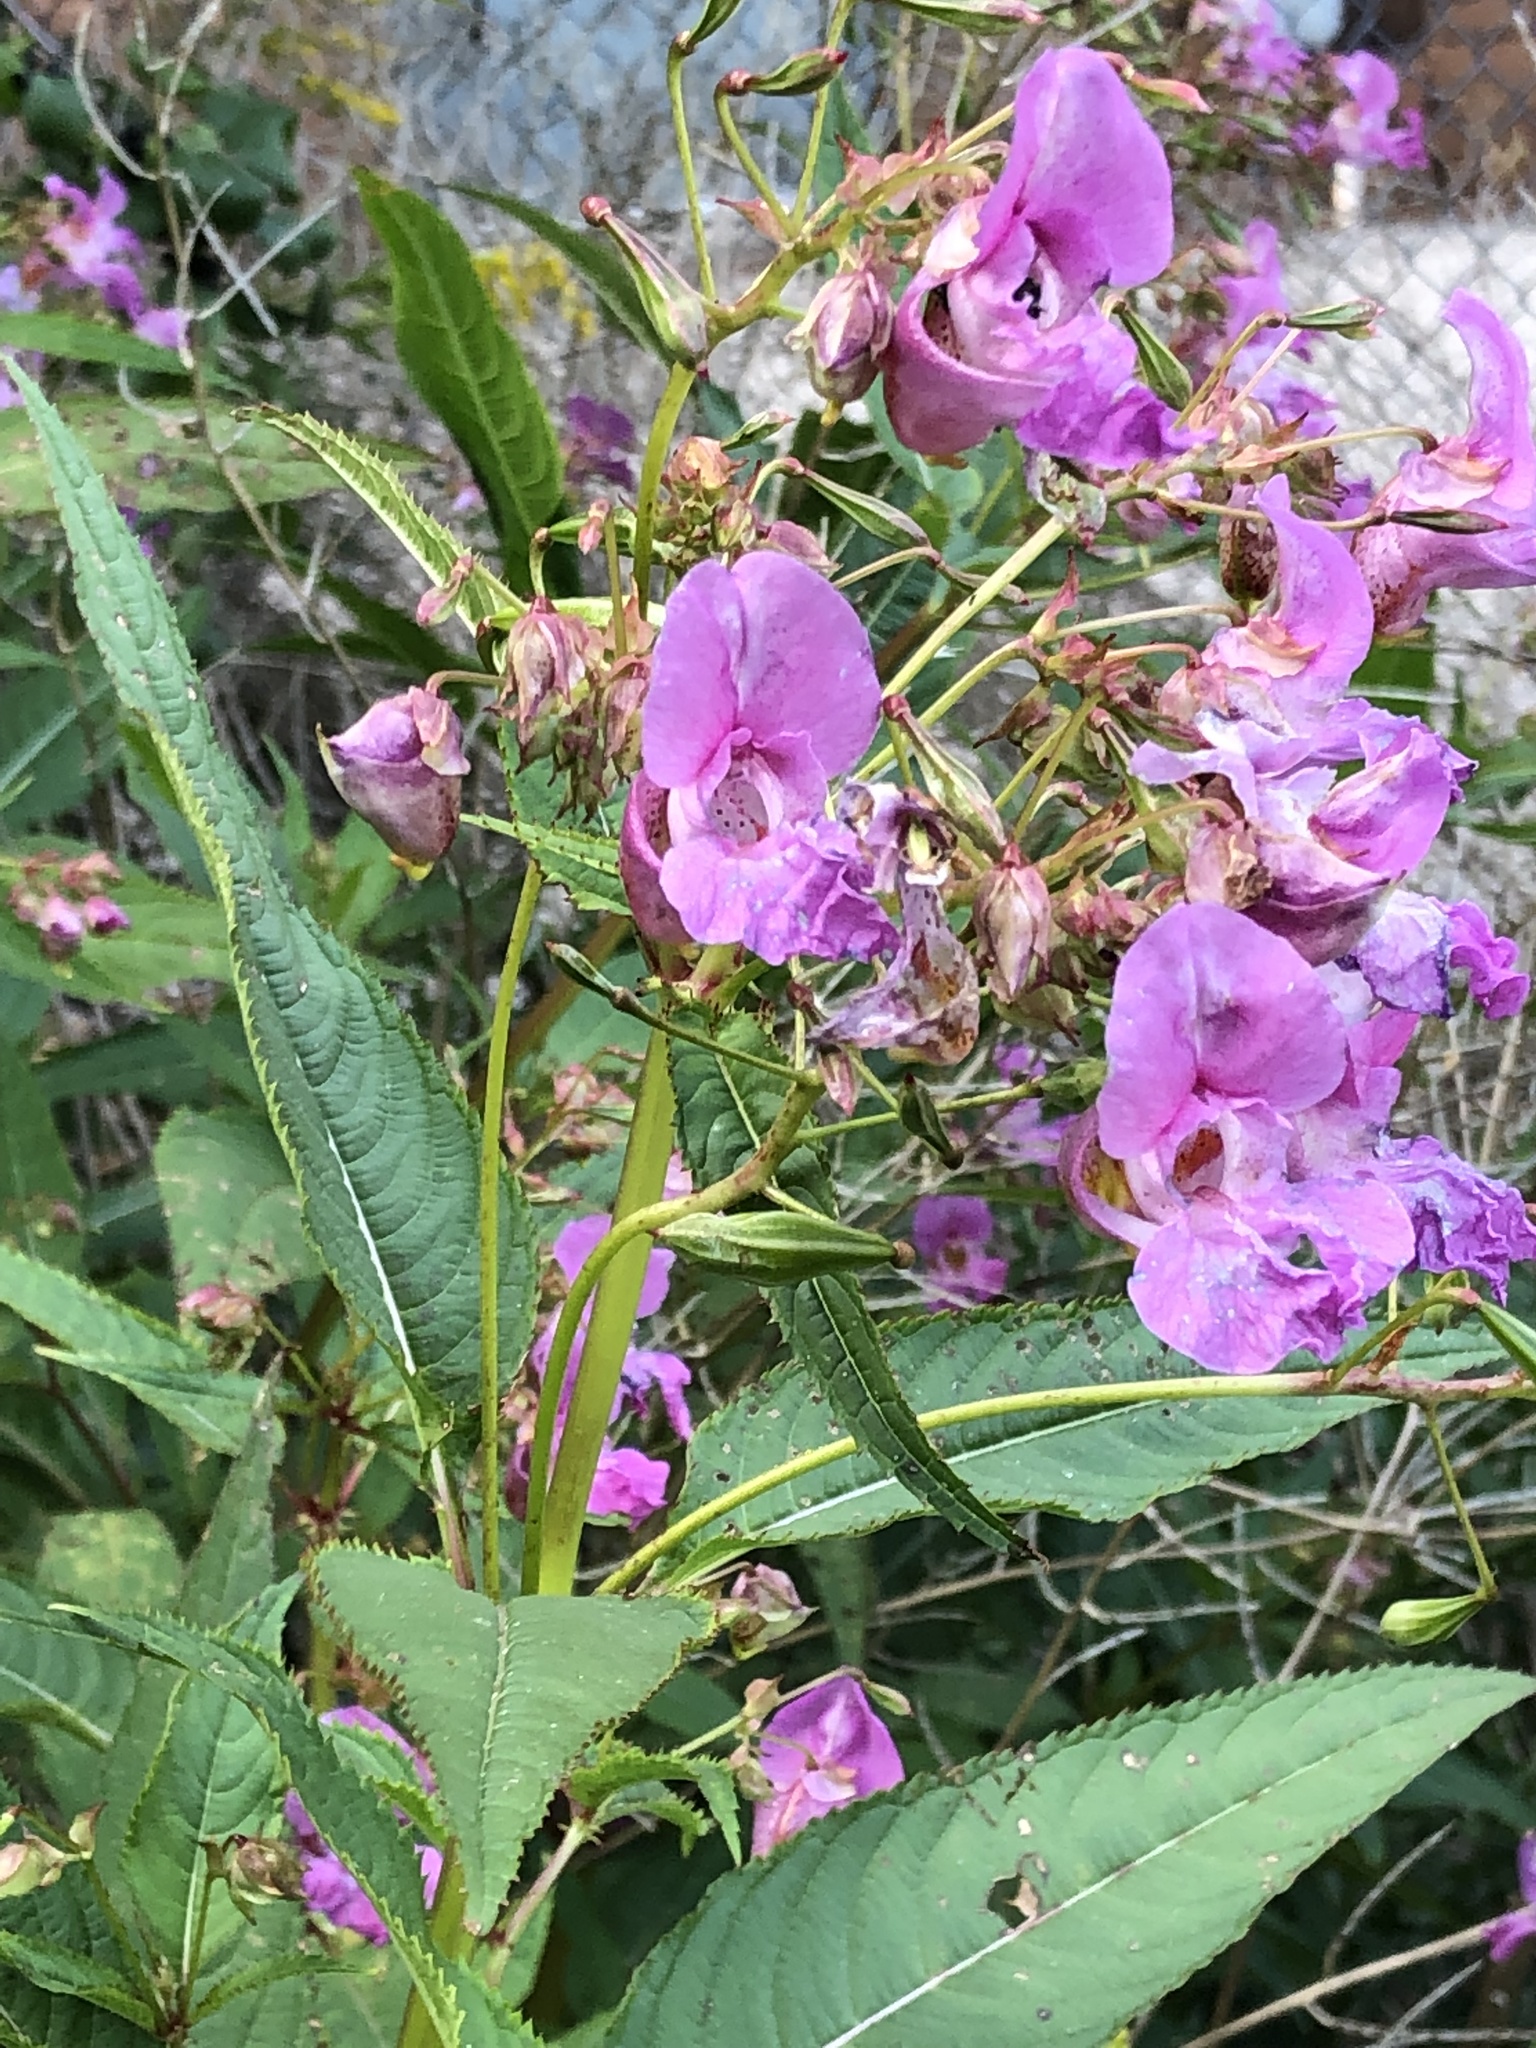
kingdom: Plantae
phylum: Tracheophyta
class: Magnoliopsida
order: Ericales
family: Balsaminaceae
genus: Impatiens
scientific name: Impatiens glandulifera
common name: Himalayan balsam
